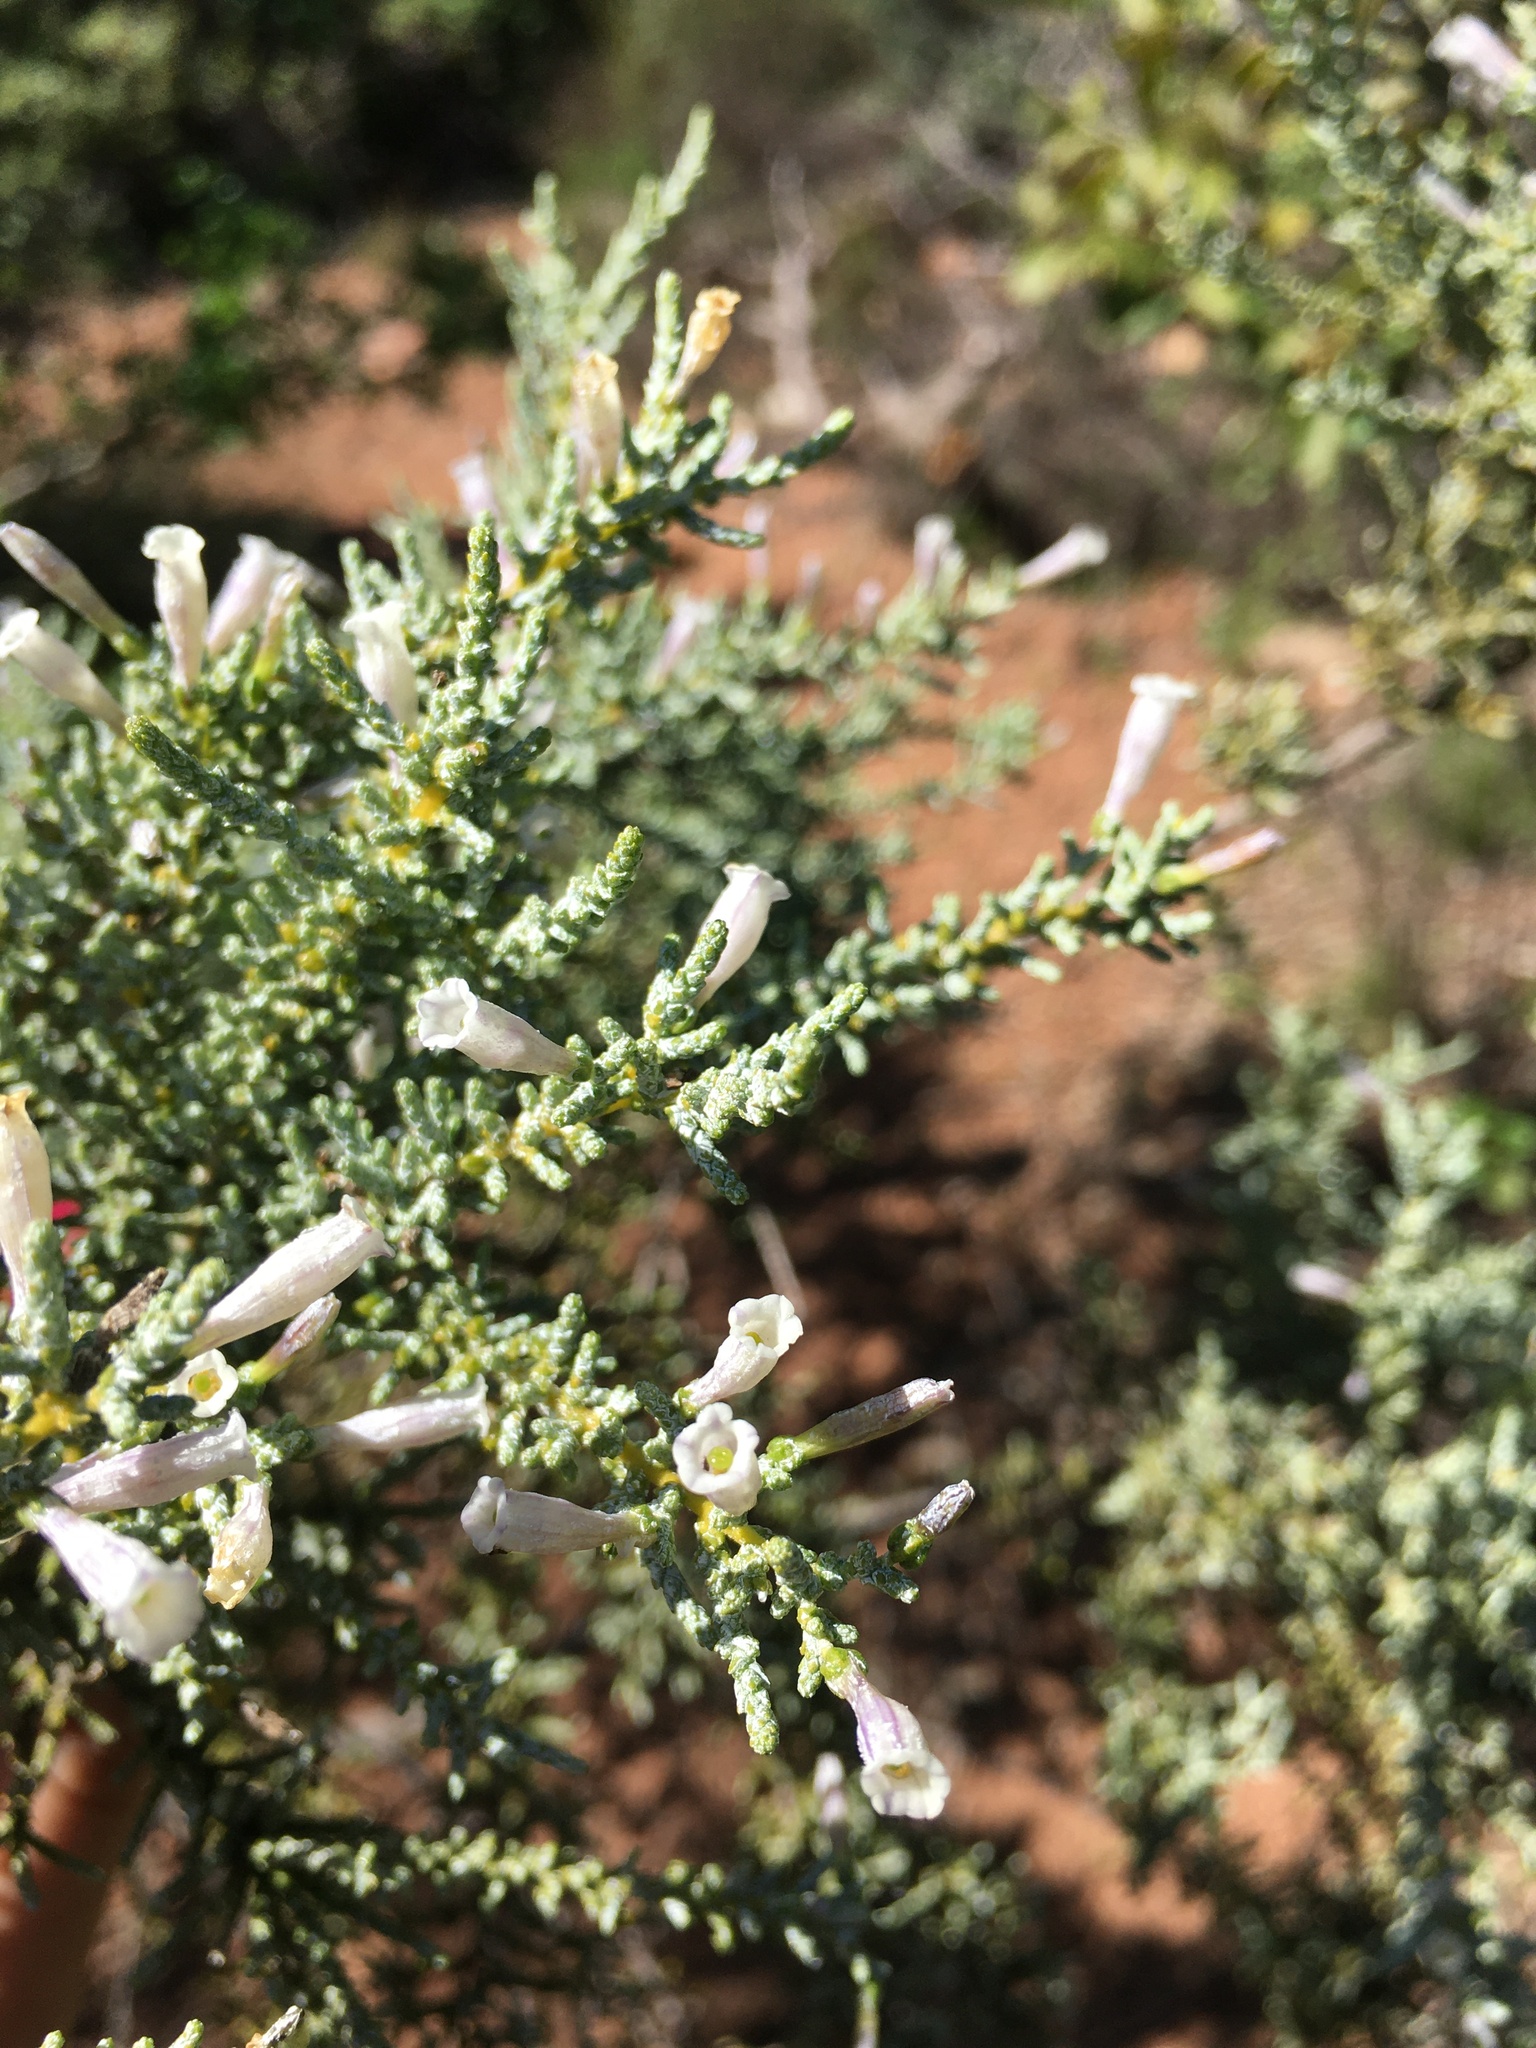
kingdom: Plantae
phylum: Tracheophyta
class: Magnoliopsida
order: Solanales
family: Solanaceae
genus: Fabiana
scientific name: Fabiana imbricata
